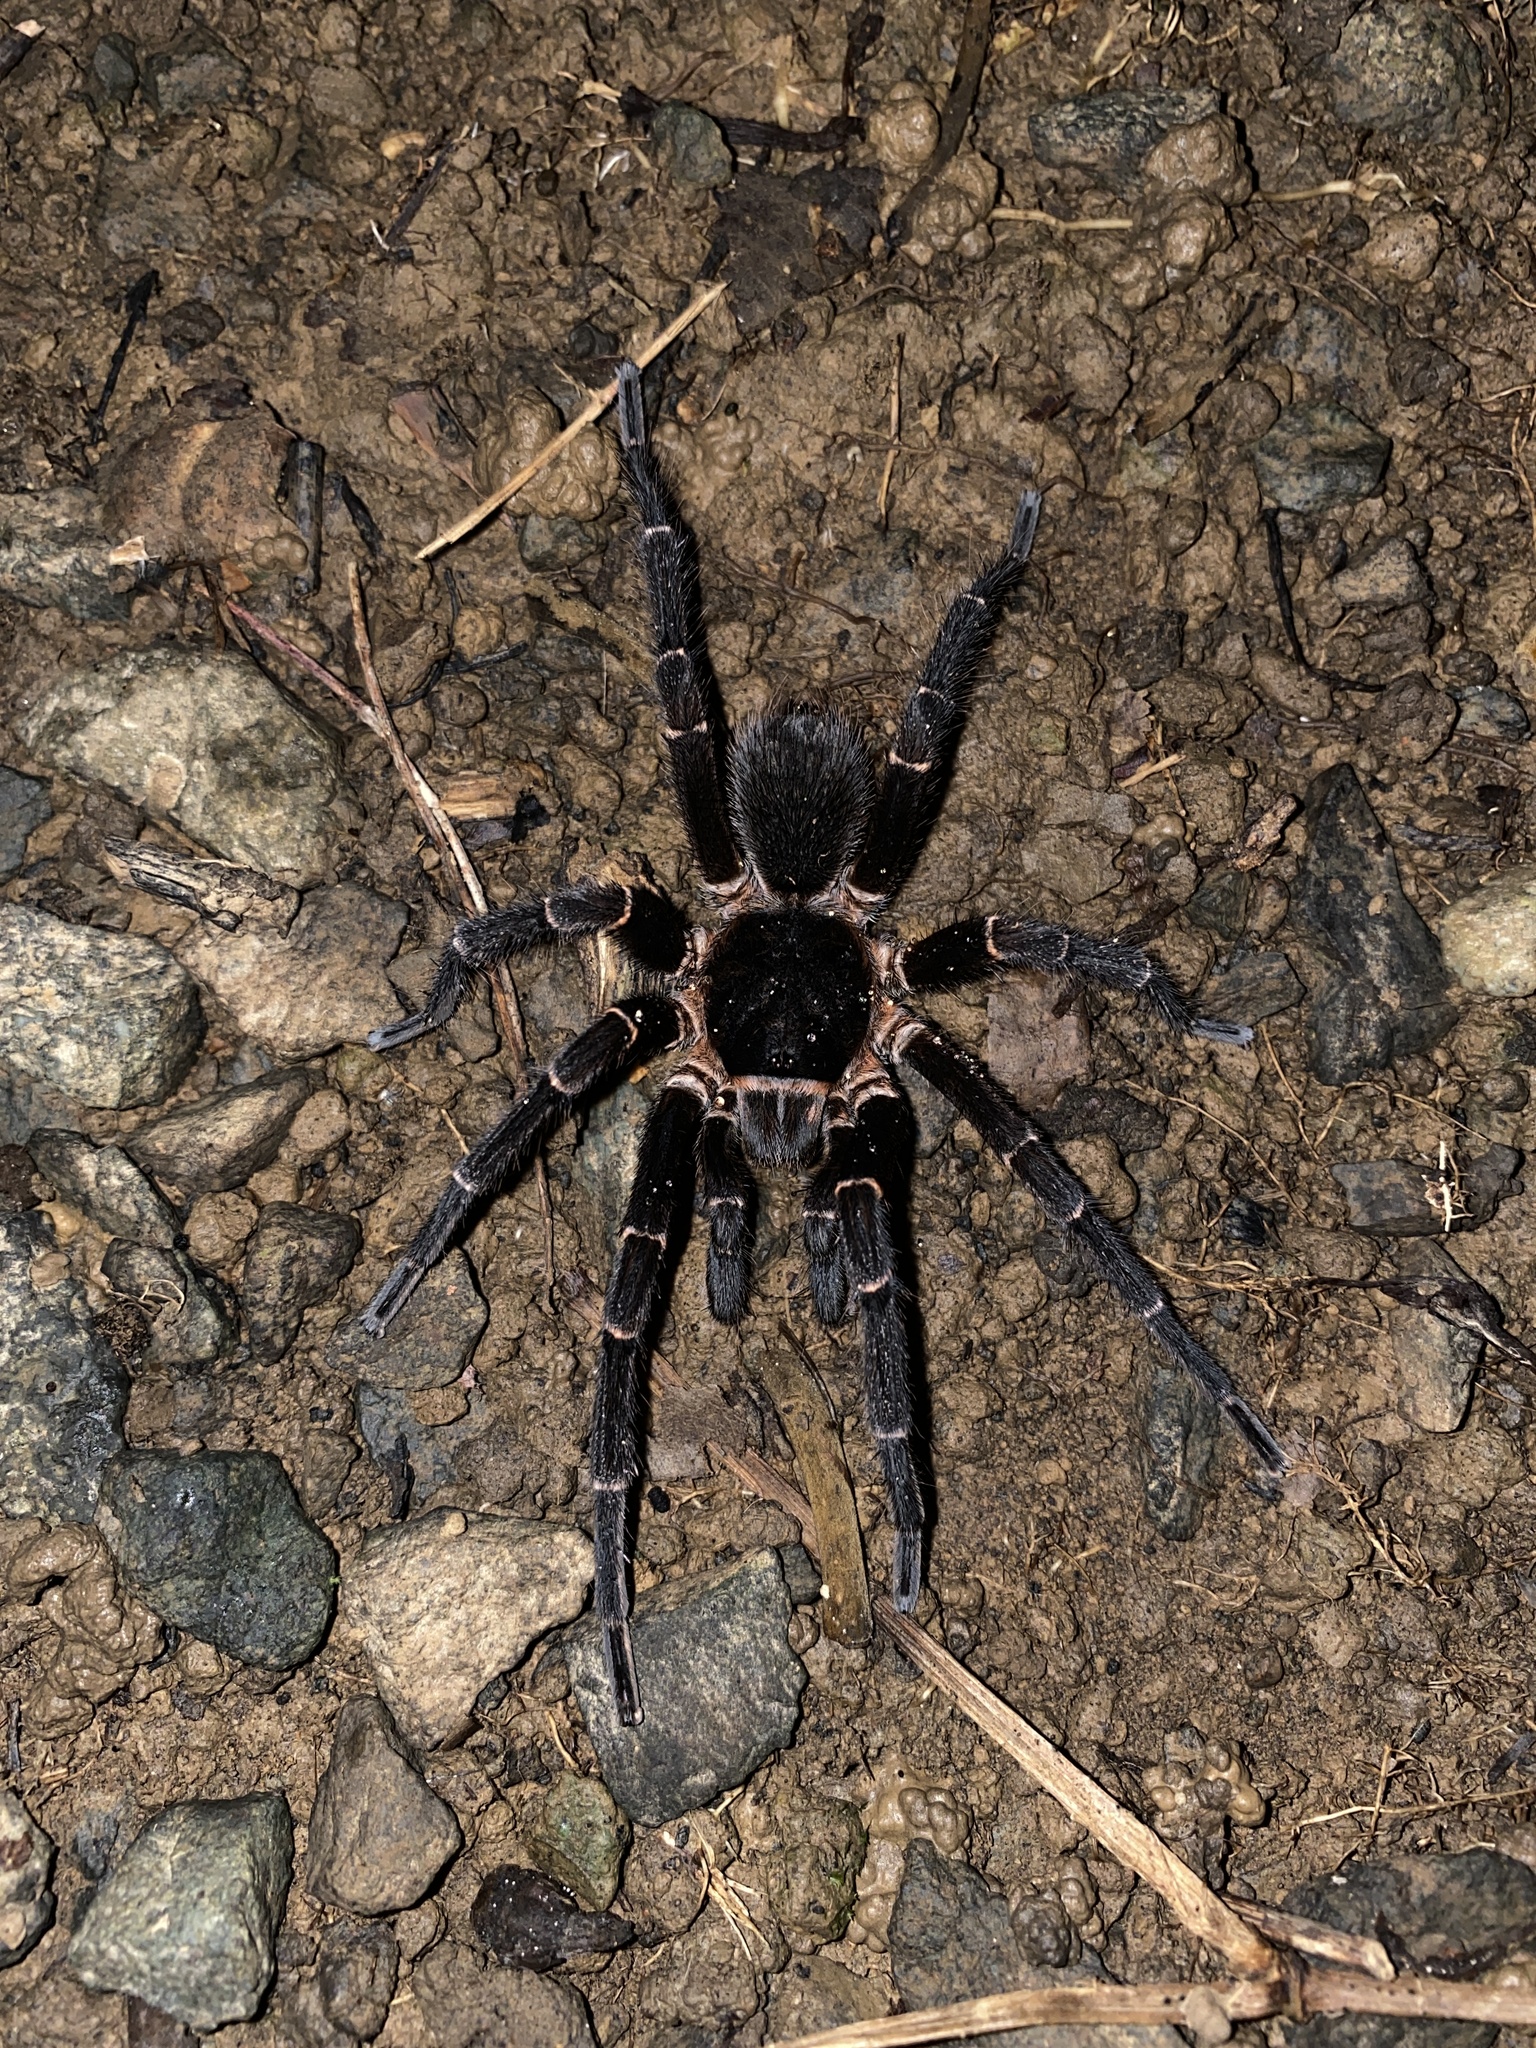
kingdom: Animalia
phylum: Arthropoda
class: Arachnida
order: Araneae
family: Theraphosidae
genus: Cyrtopholis
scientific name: Cyrtopholis portoricae
